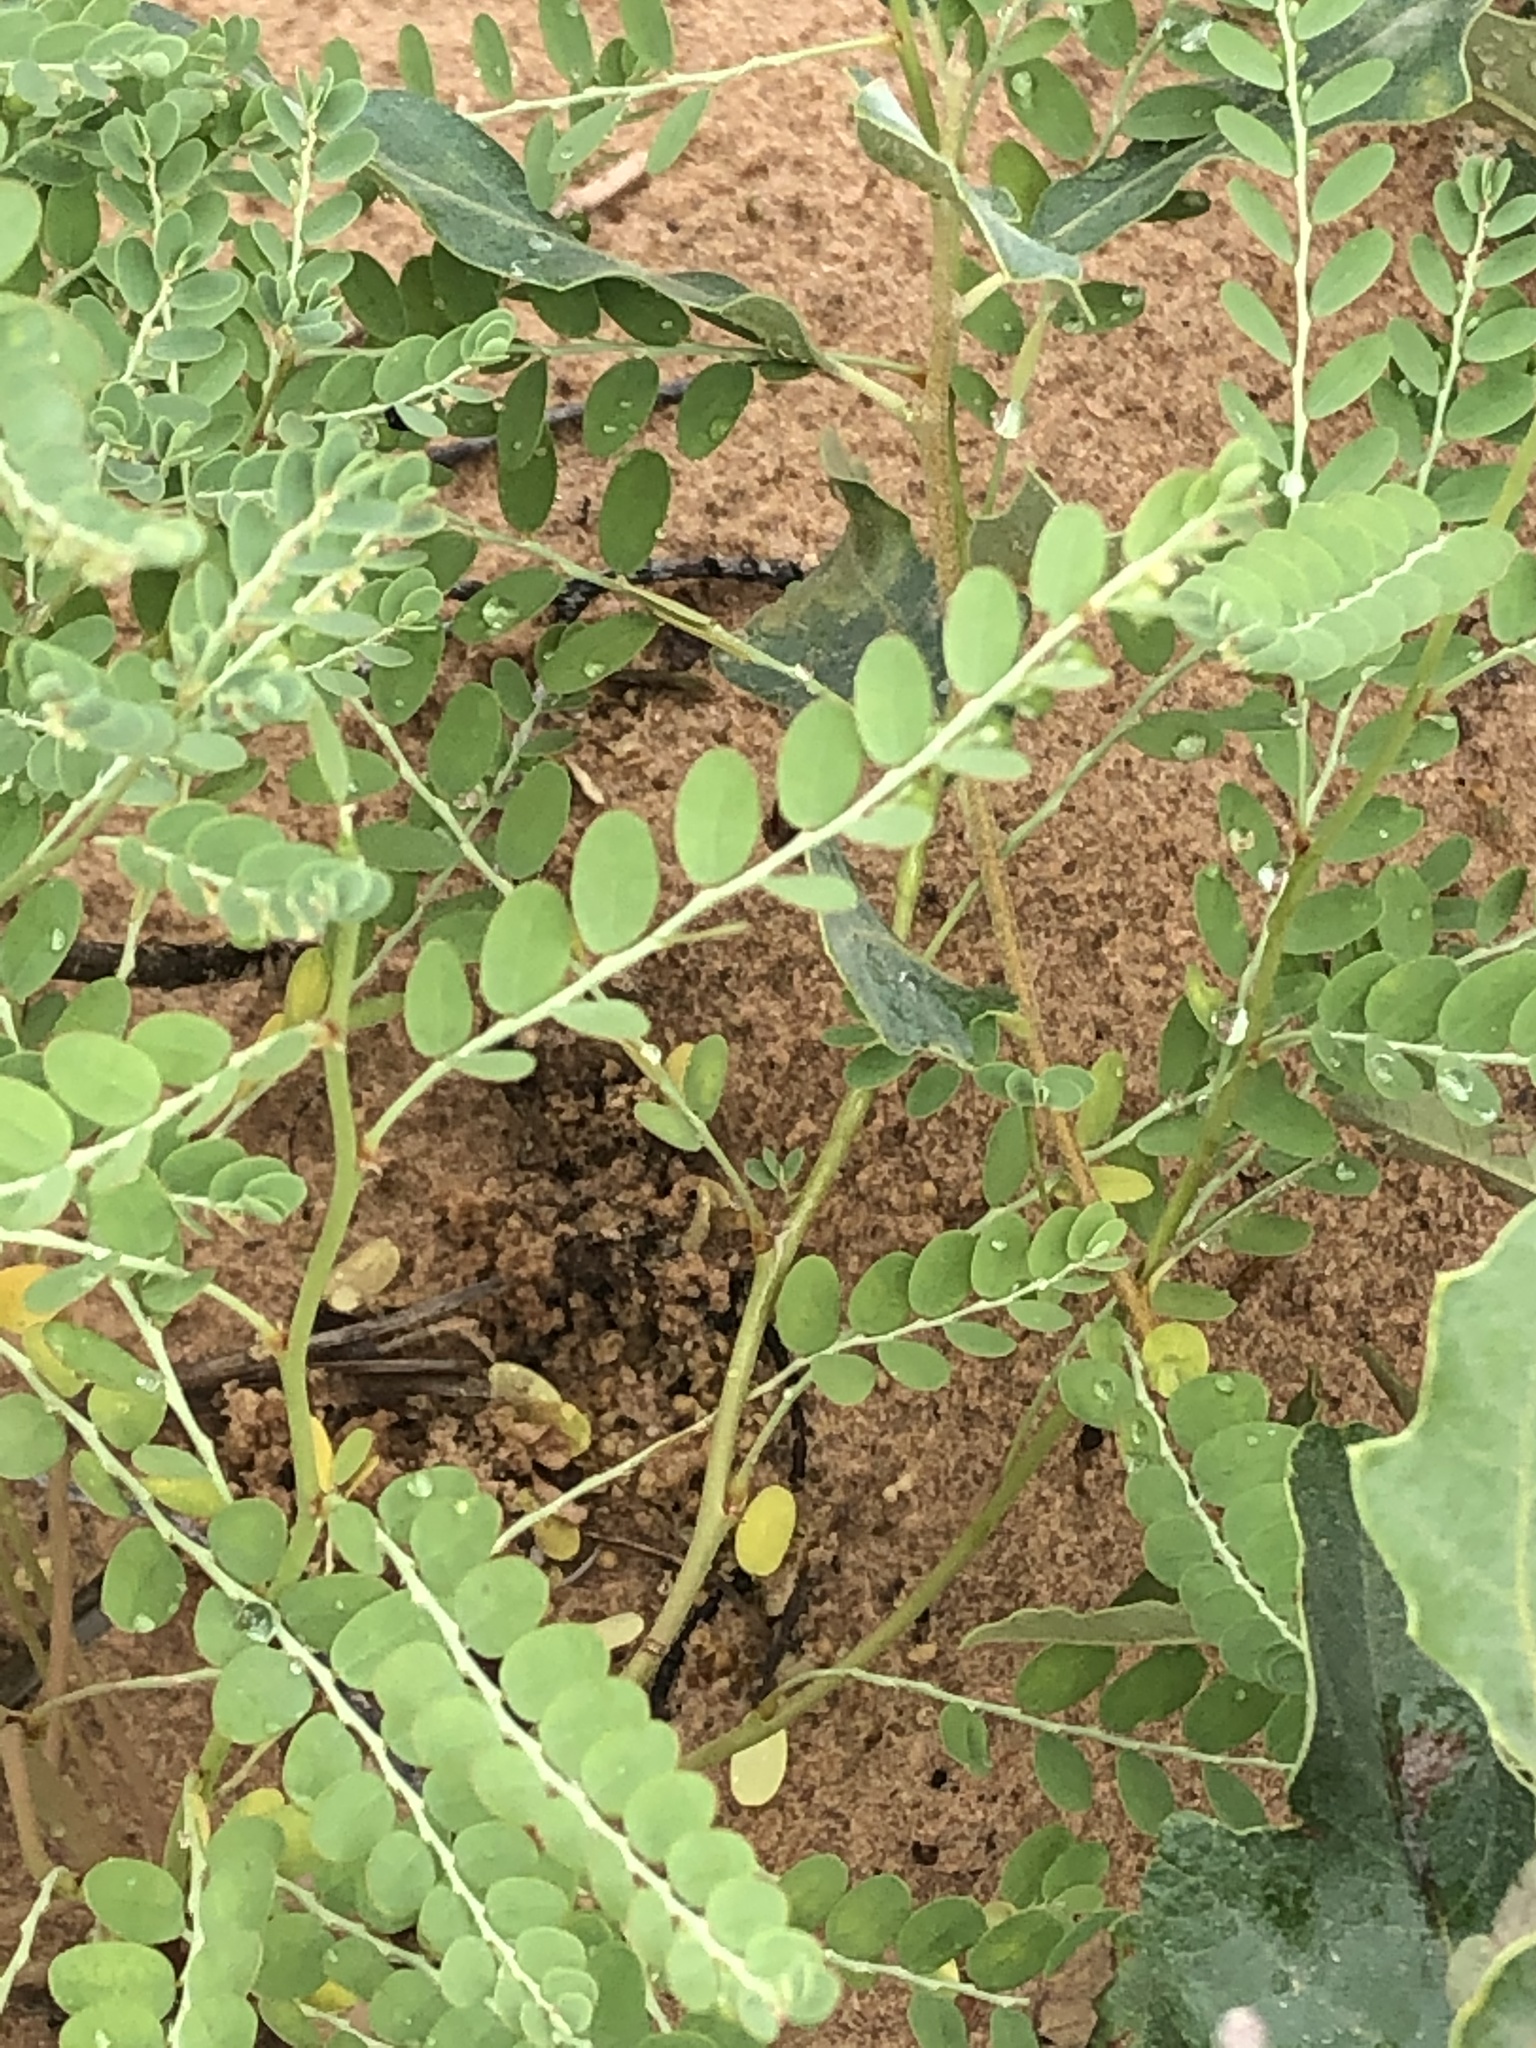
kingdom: Plantae
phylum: Tracheophyta
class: Magnoliopsida
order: Malpighiales
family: Phyllanthaceae
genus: Phyllanthus
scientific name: Phyllanthus abnormis
